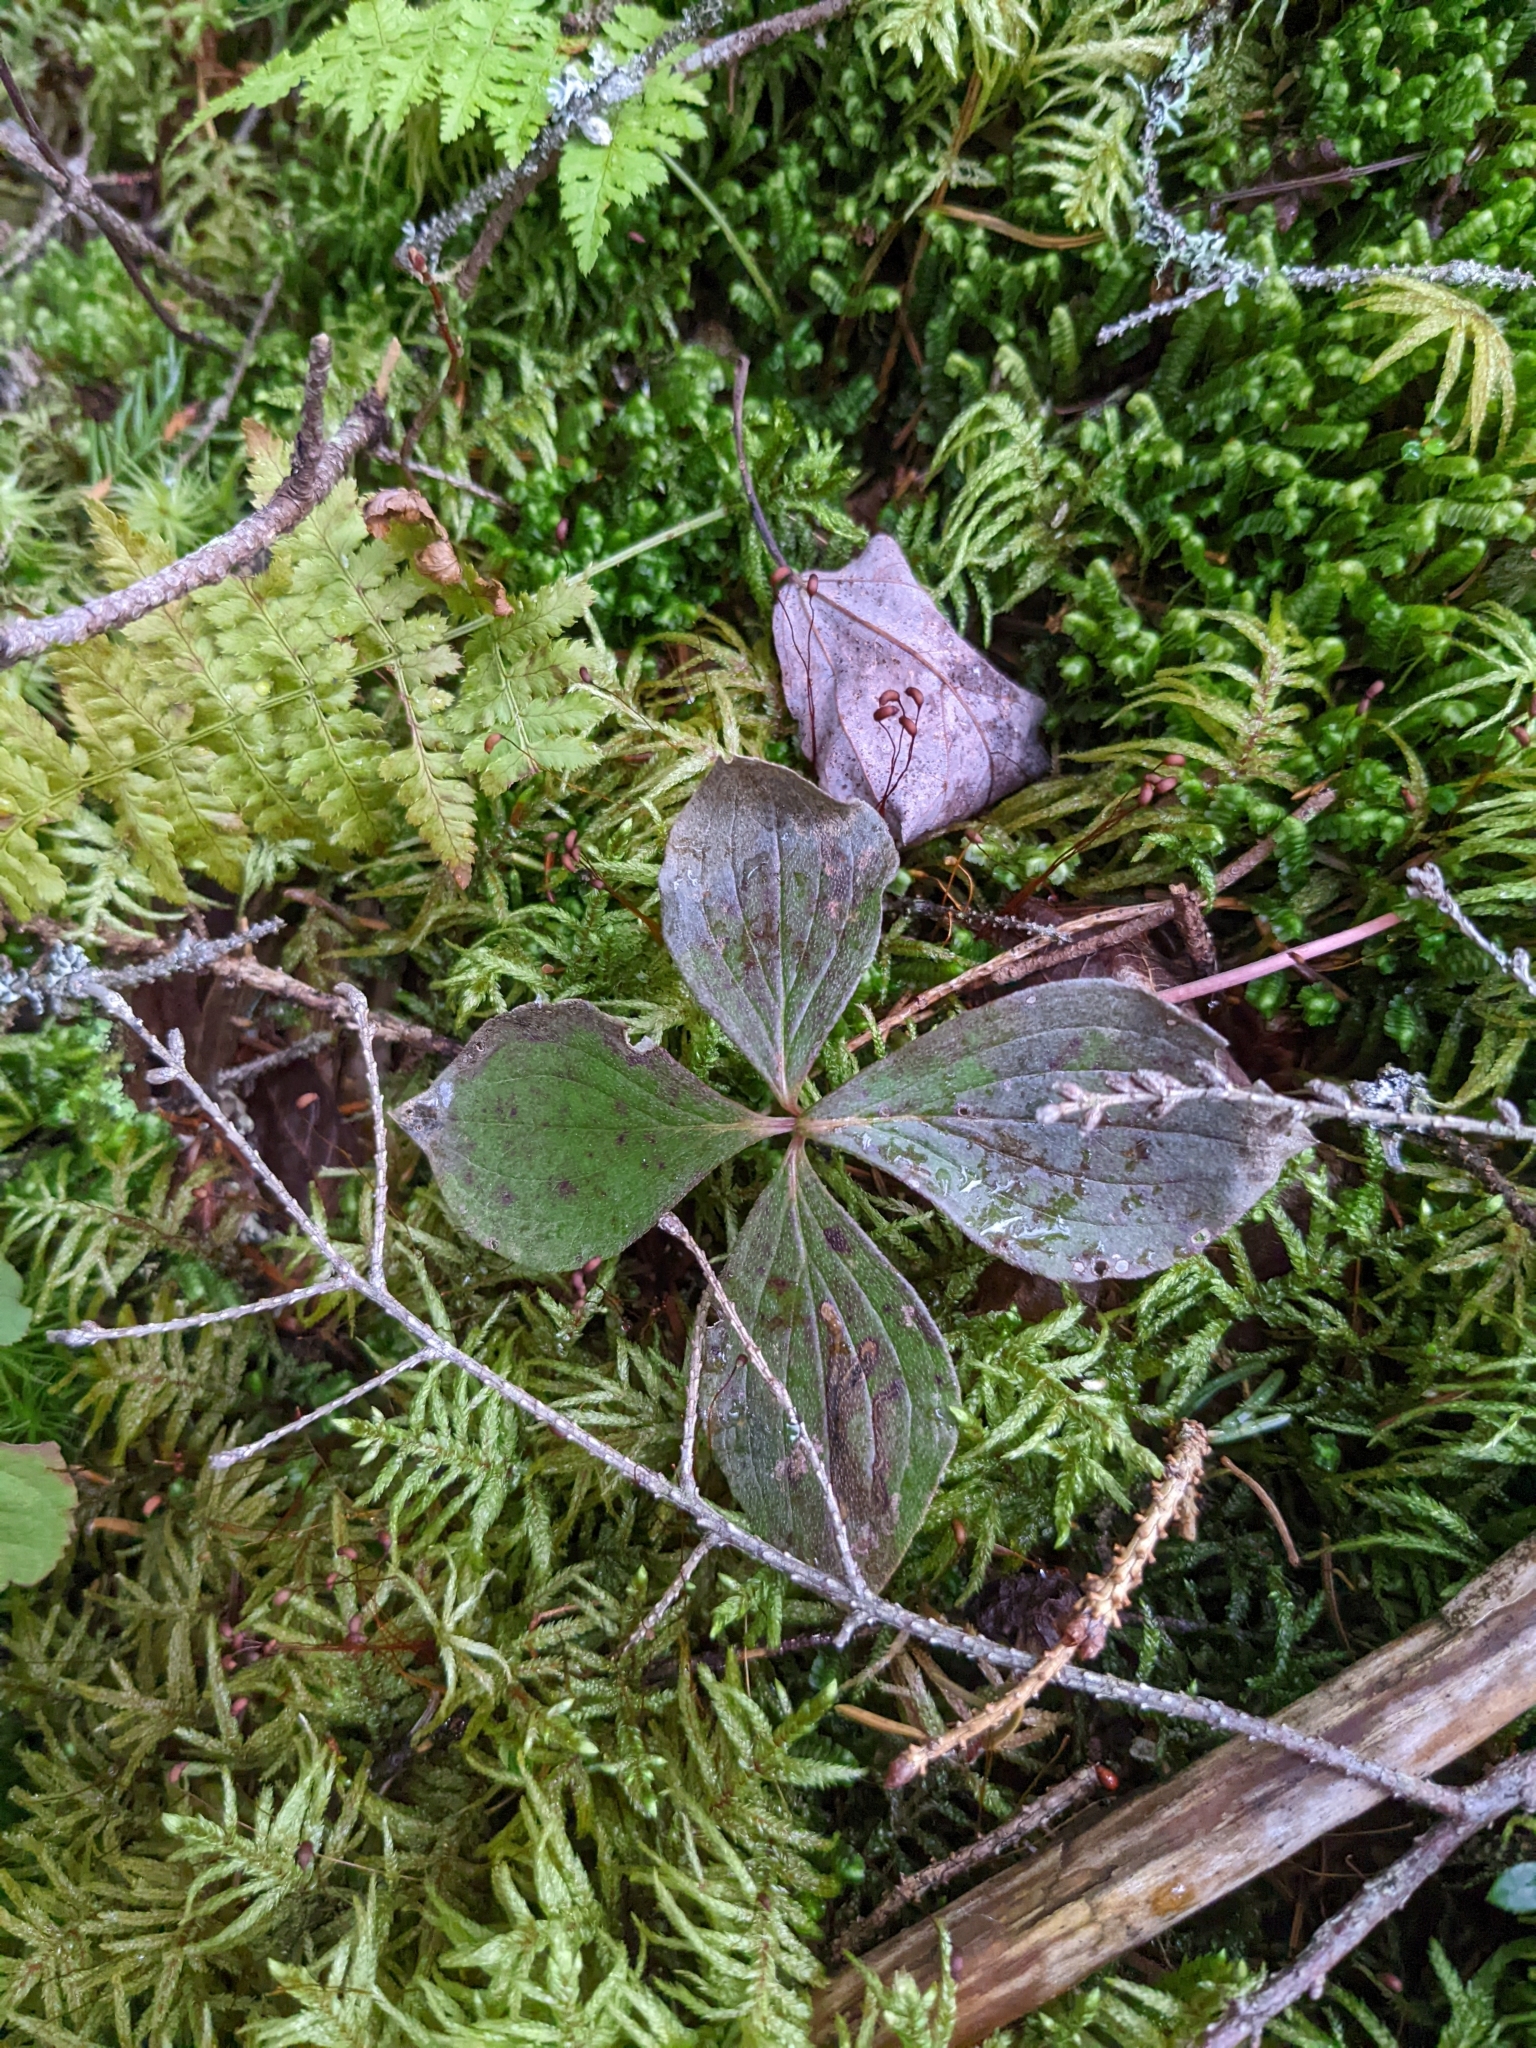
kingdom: Plantae
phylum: Tracheophyta
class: Magnoliopsida
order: Cornales
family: Cornaceae
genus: Cornus
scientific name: Cornus canadensis
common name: Creeping dogwood
